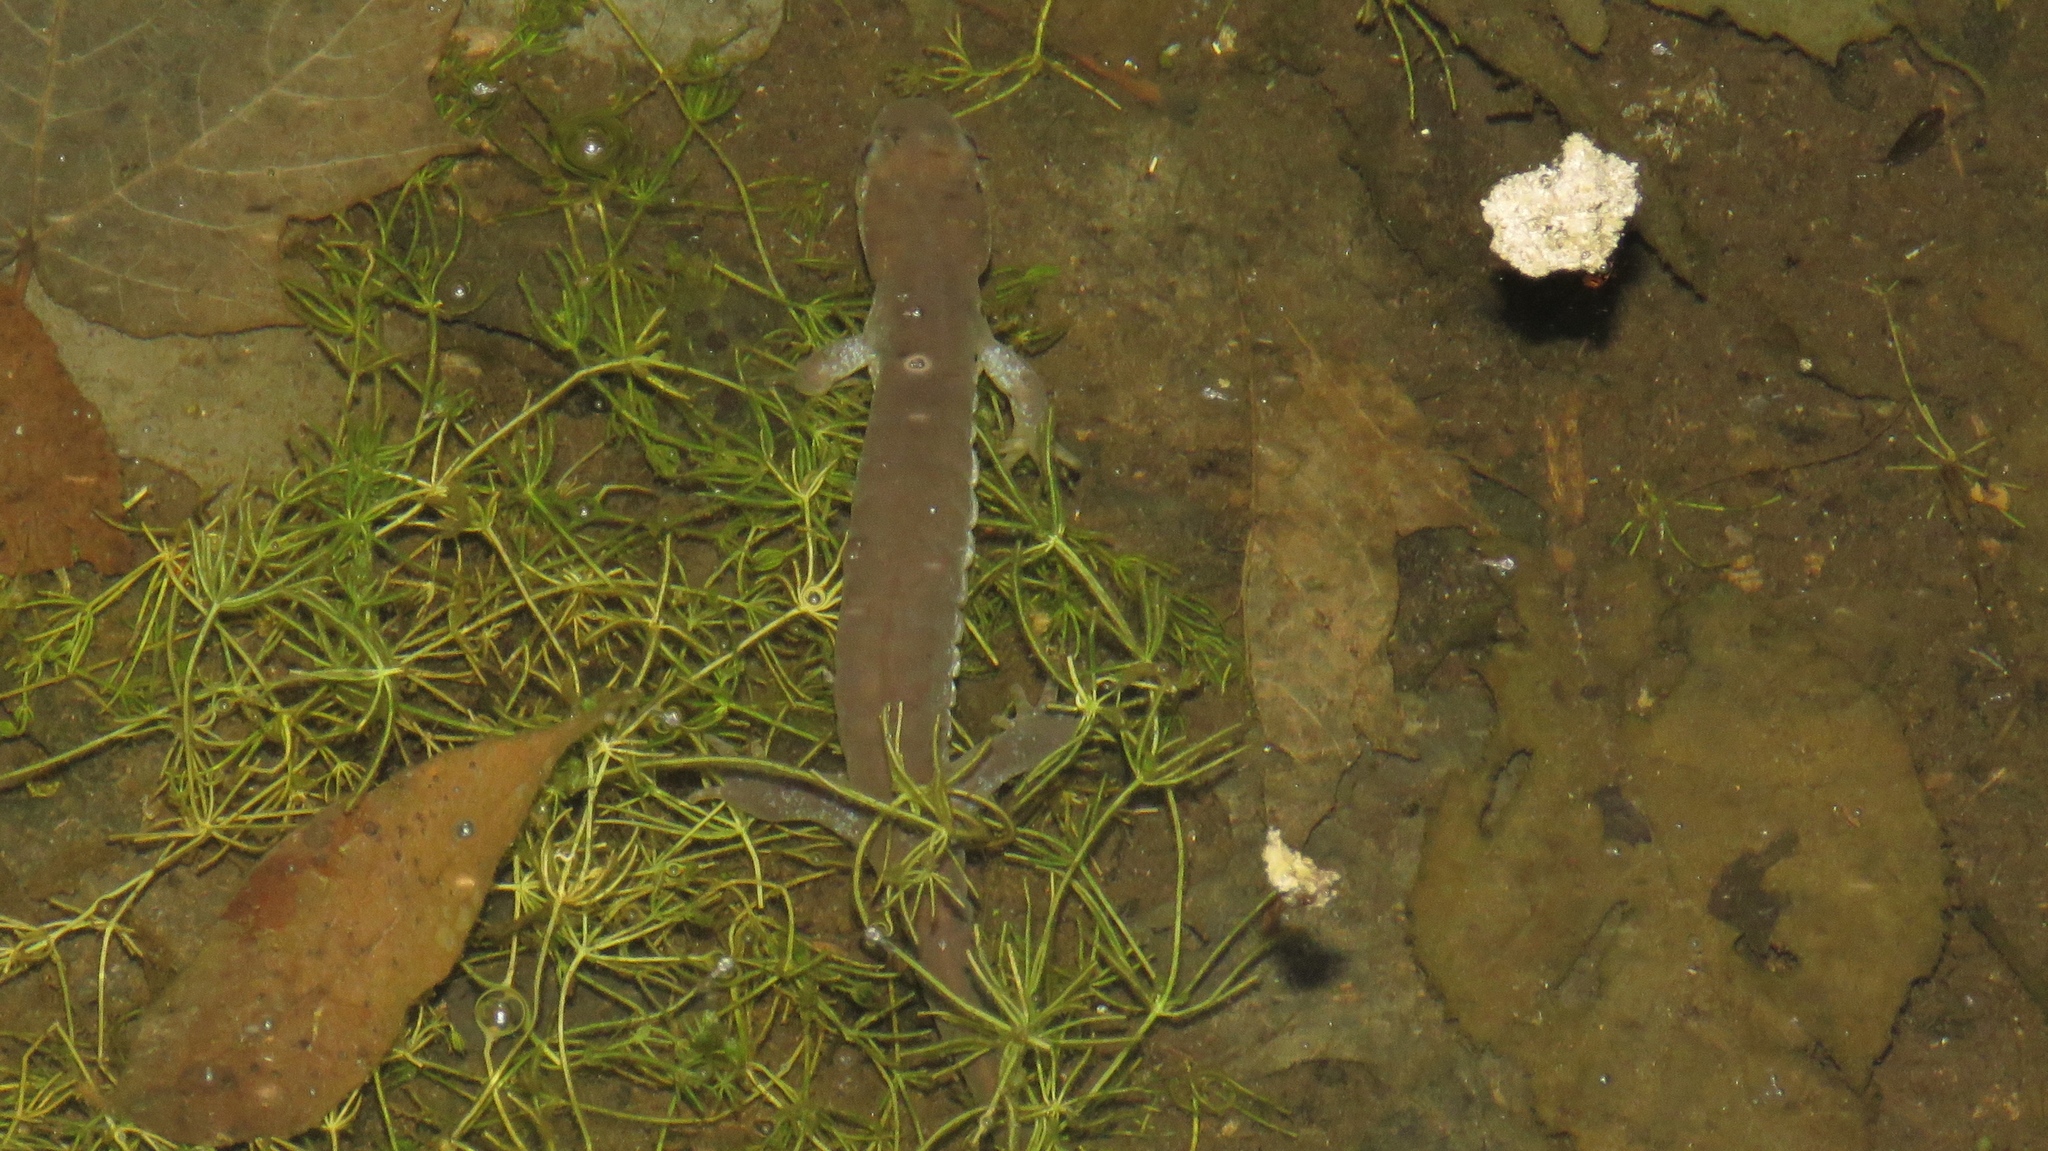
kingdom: Animalia
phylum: Chordata
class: Amphibia
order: Caudata
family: Ambystomatidae
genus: Ambystoma
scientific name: Ambystoma
